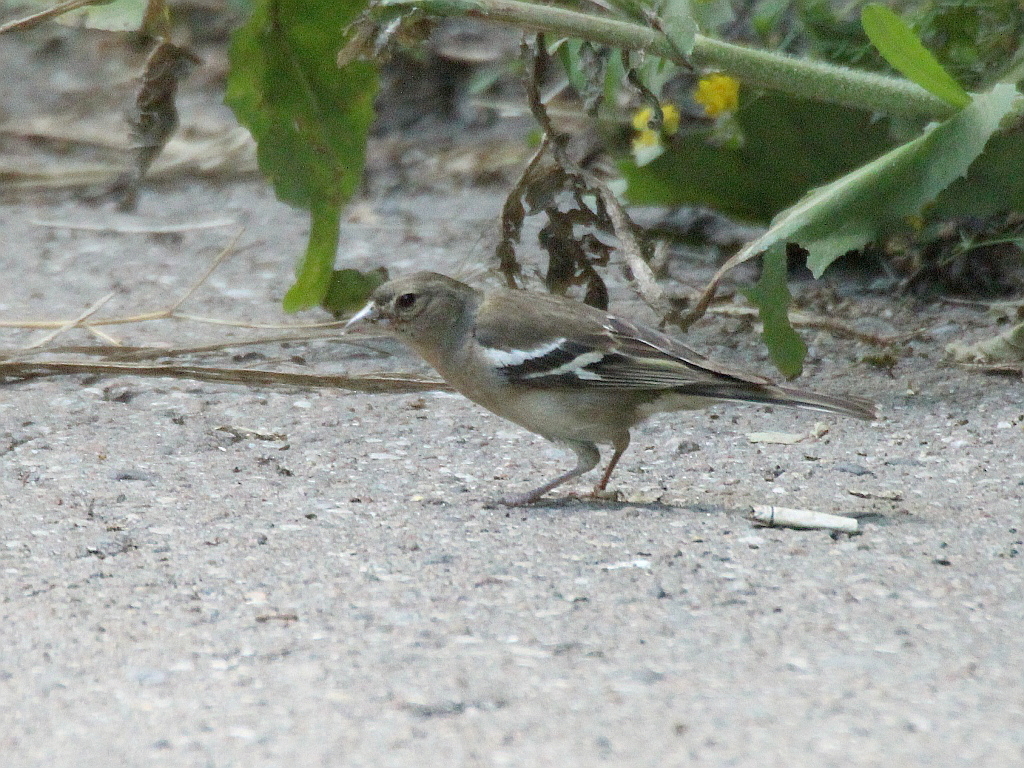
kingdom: Animalia
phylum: Chordata
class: Aves
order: Passeriformes
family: Fringillidae
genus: Fringilla
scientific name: Fringilla coelebs
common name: Common chaffinch
